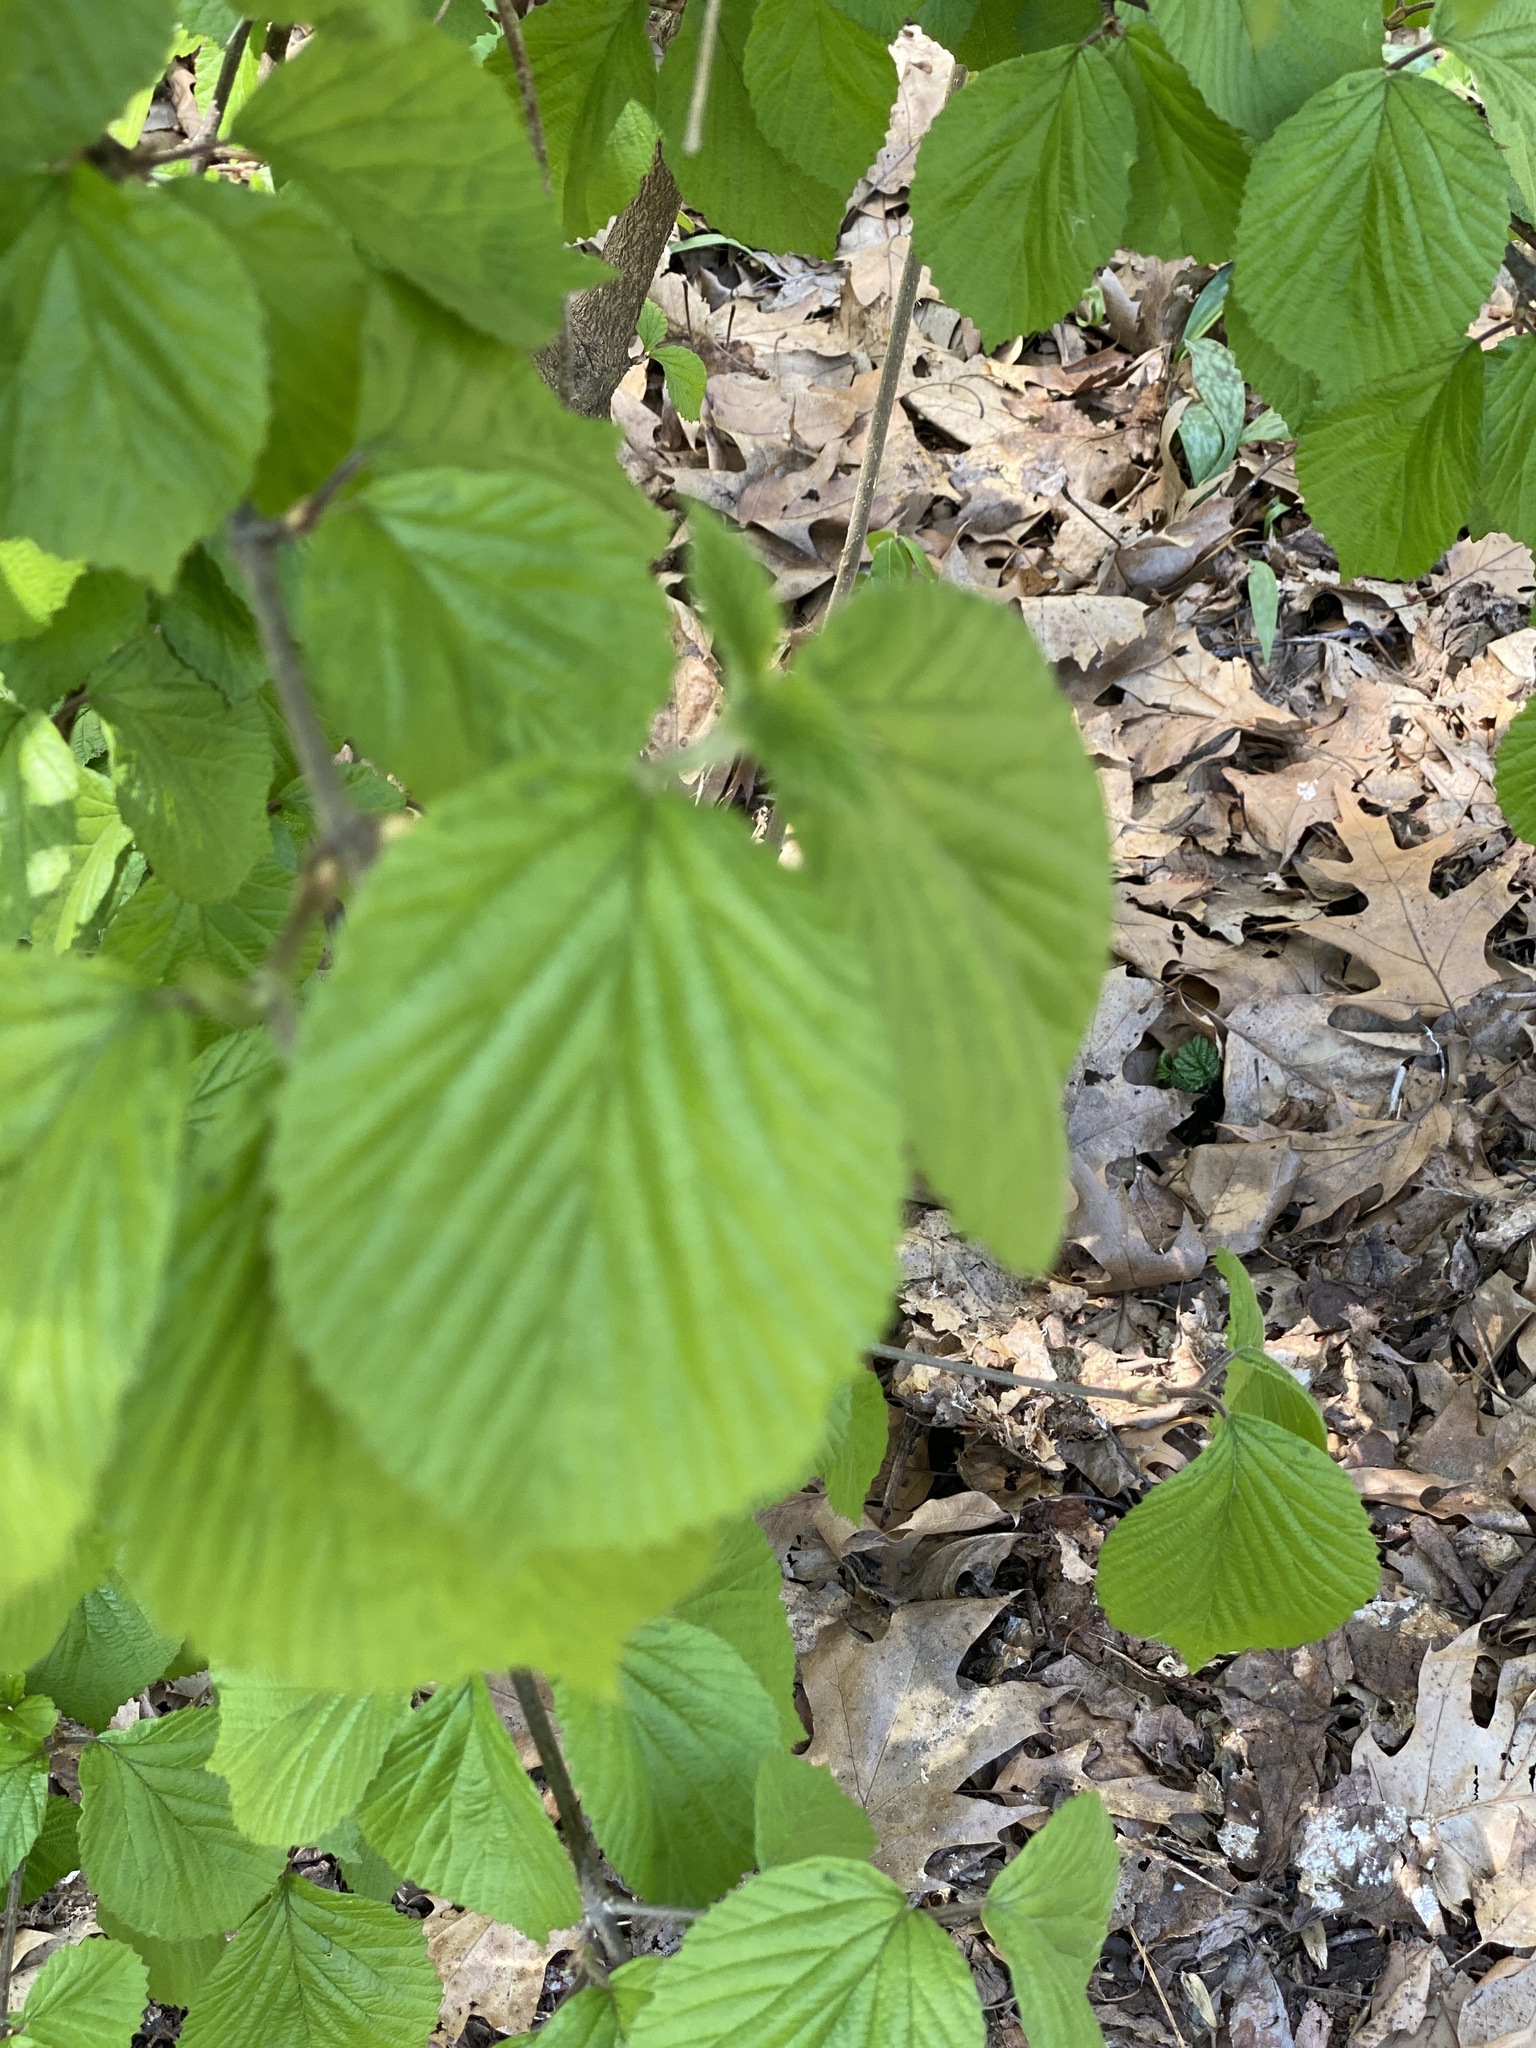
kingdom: Plantae
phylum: Tracheophyta
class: Magnoliopsida
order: Dipsacales
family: Viburnaceae
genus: Viburnum
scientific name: Viburnum dilatatum
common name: Linden arrowwood
